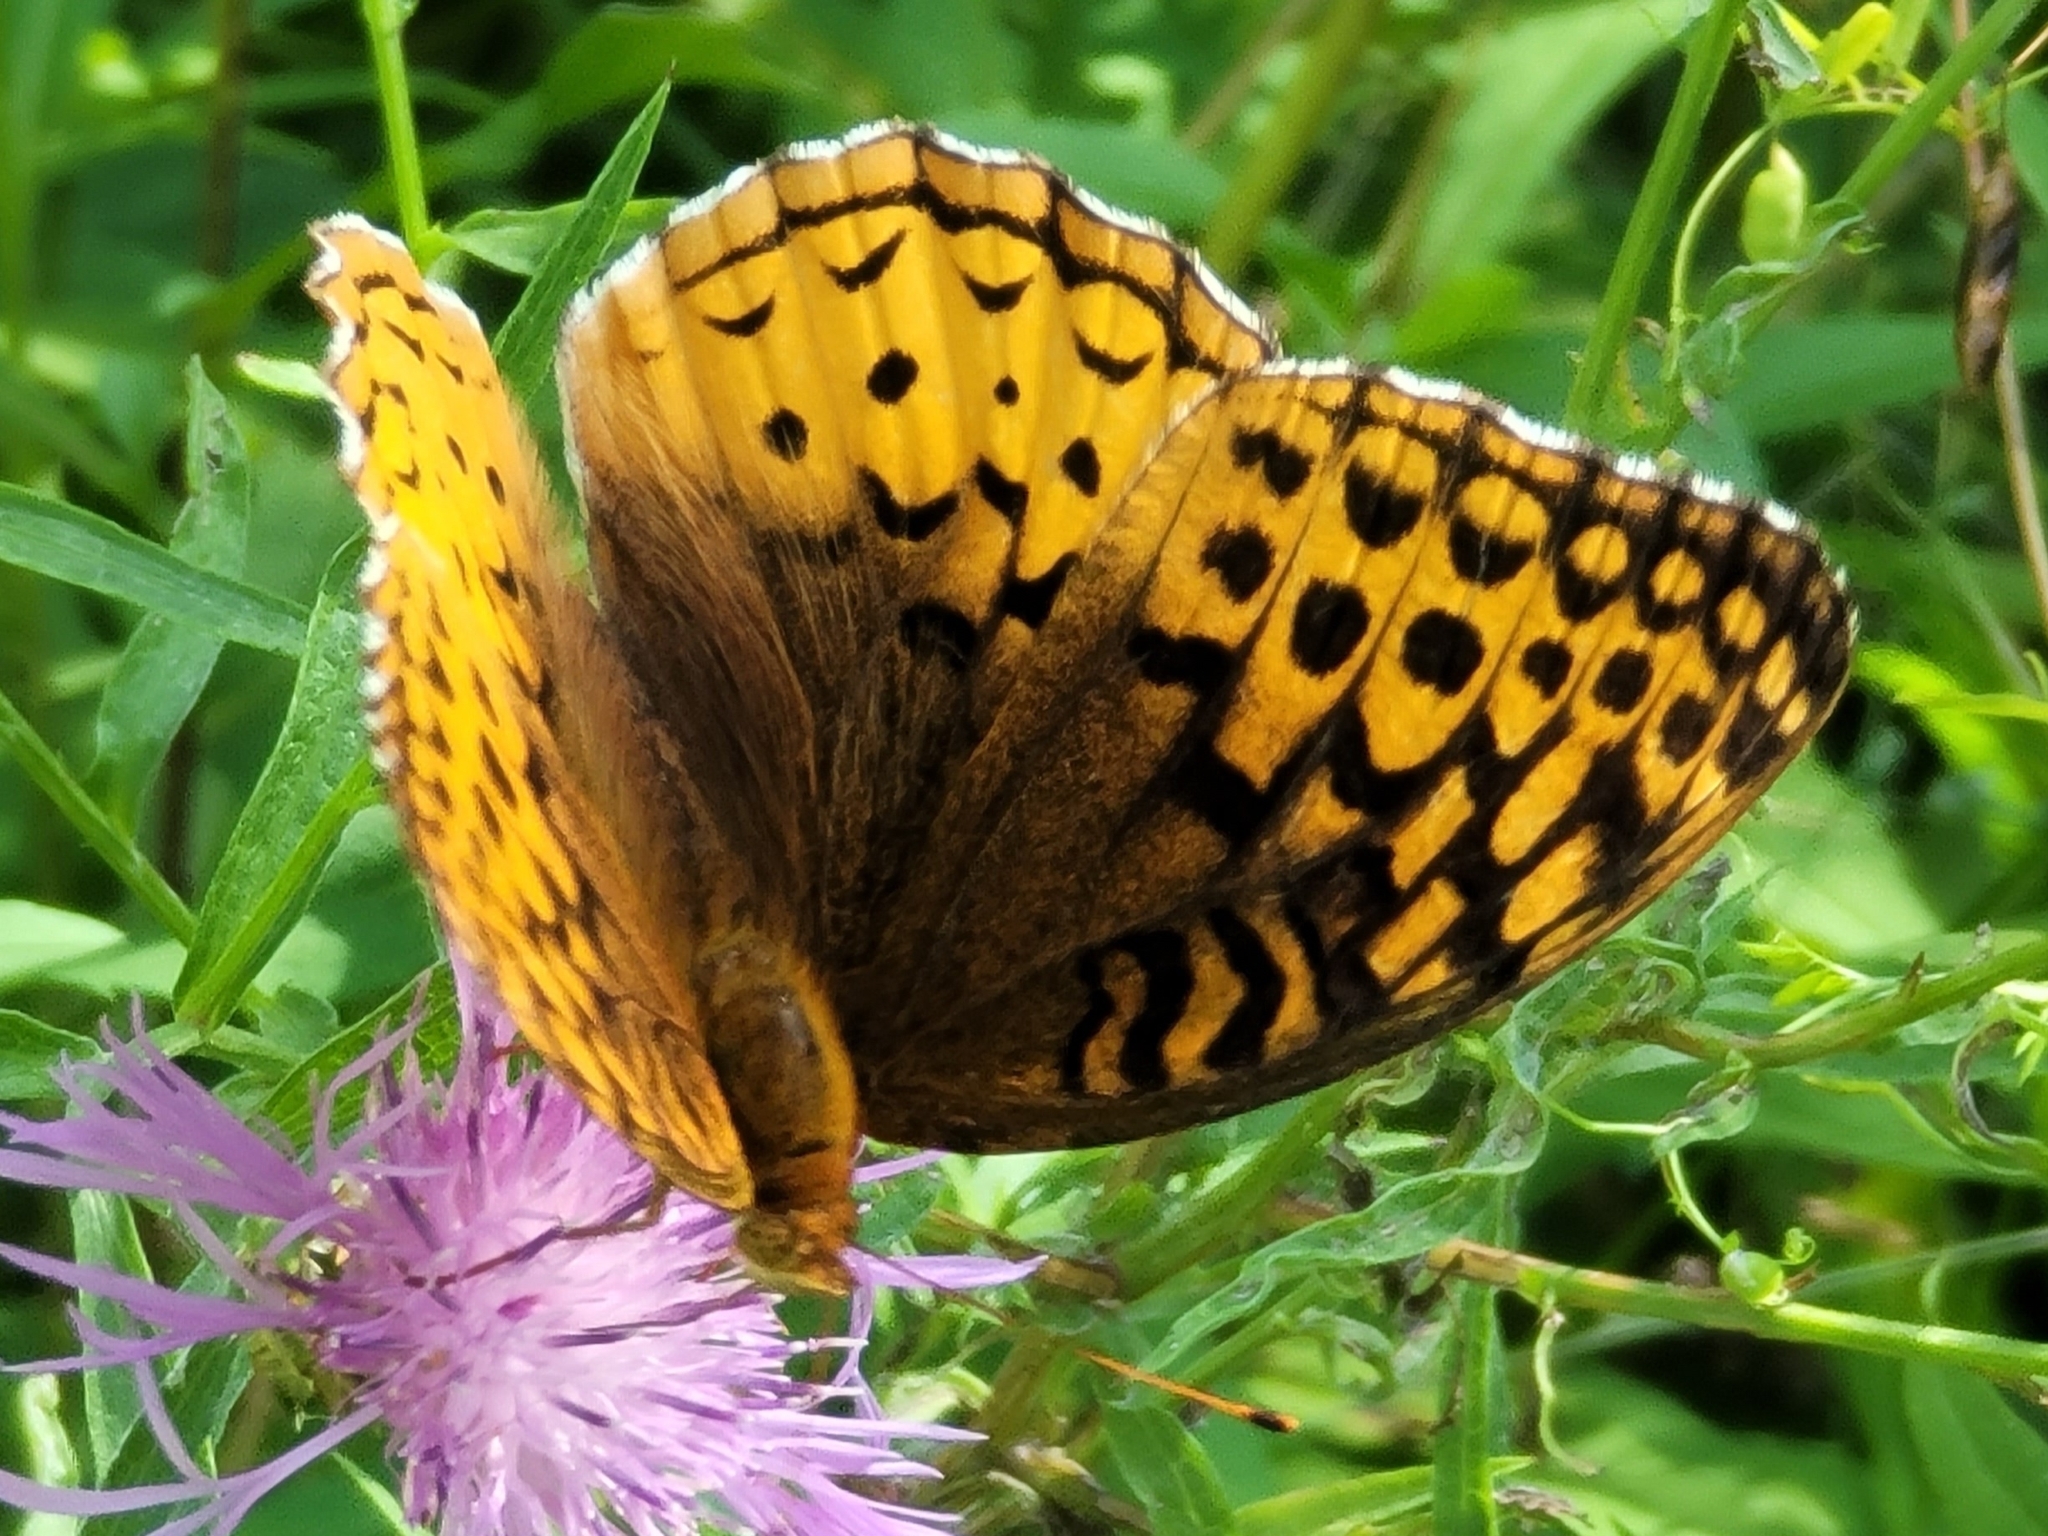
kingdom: Animalia
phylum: Arthropoda
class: Insecta
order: Lepidoptera
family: Nymphalidae
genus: Speyeria
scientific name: Speyeria cybele
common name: Great spangled fritillary
